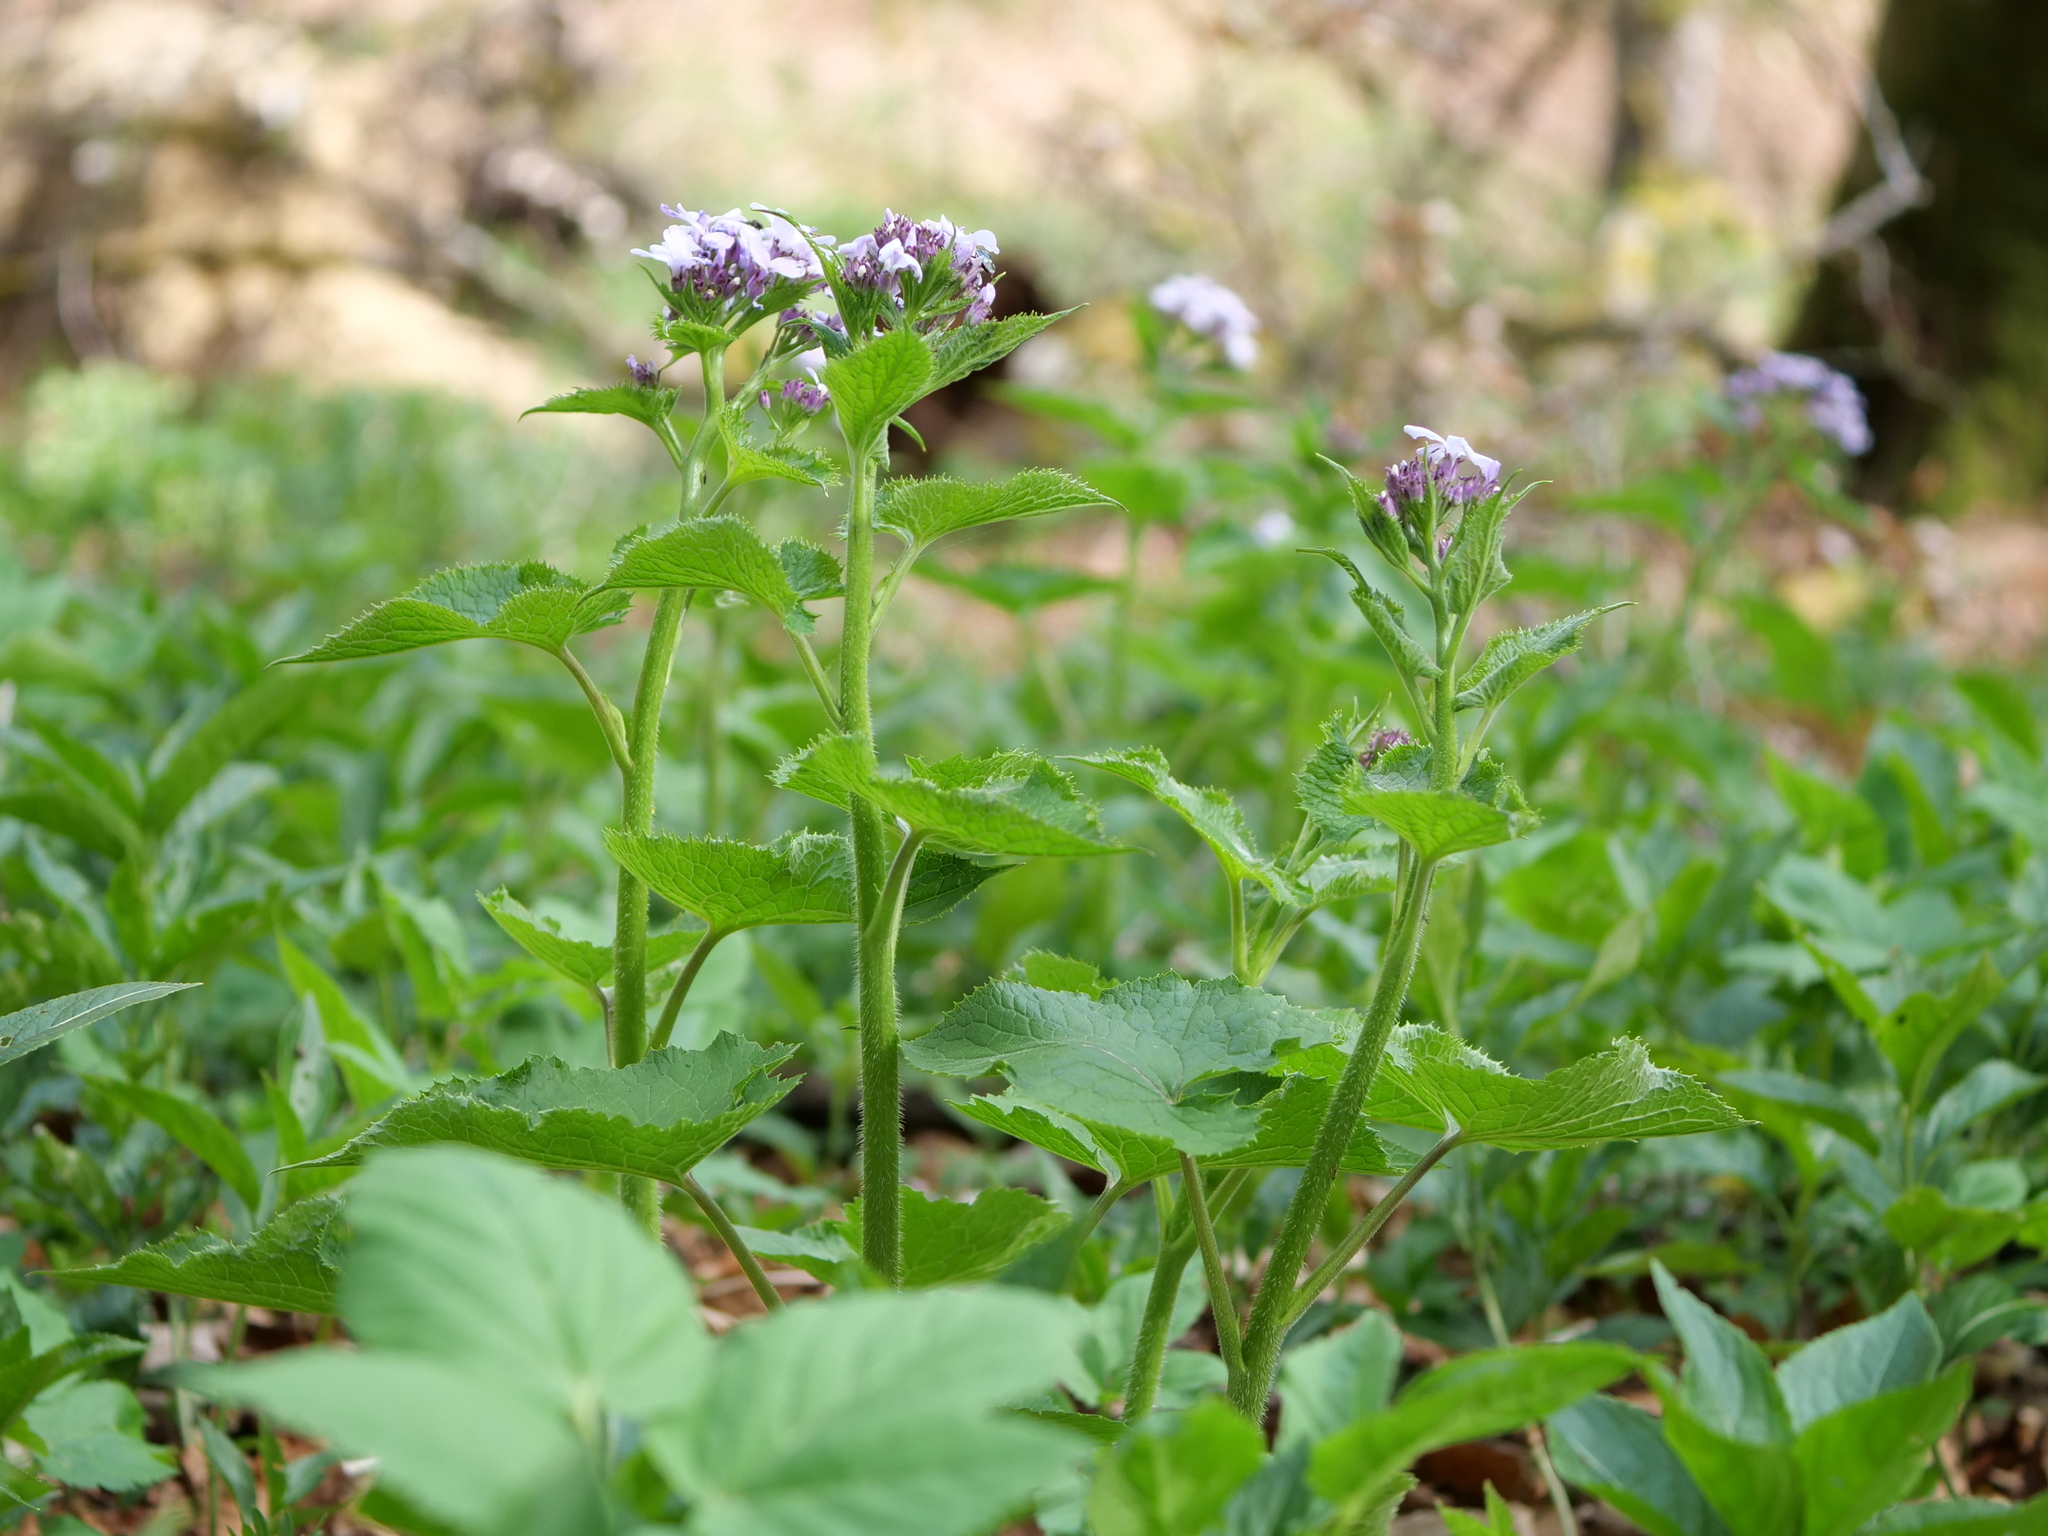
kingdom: Plantae
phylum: Tracheophyta
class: Magnoliopsida
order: Brassicales
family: Brassicaceae
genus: Lunaria
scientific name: Lunaria rediviva
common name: Perennial honesty
